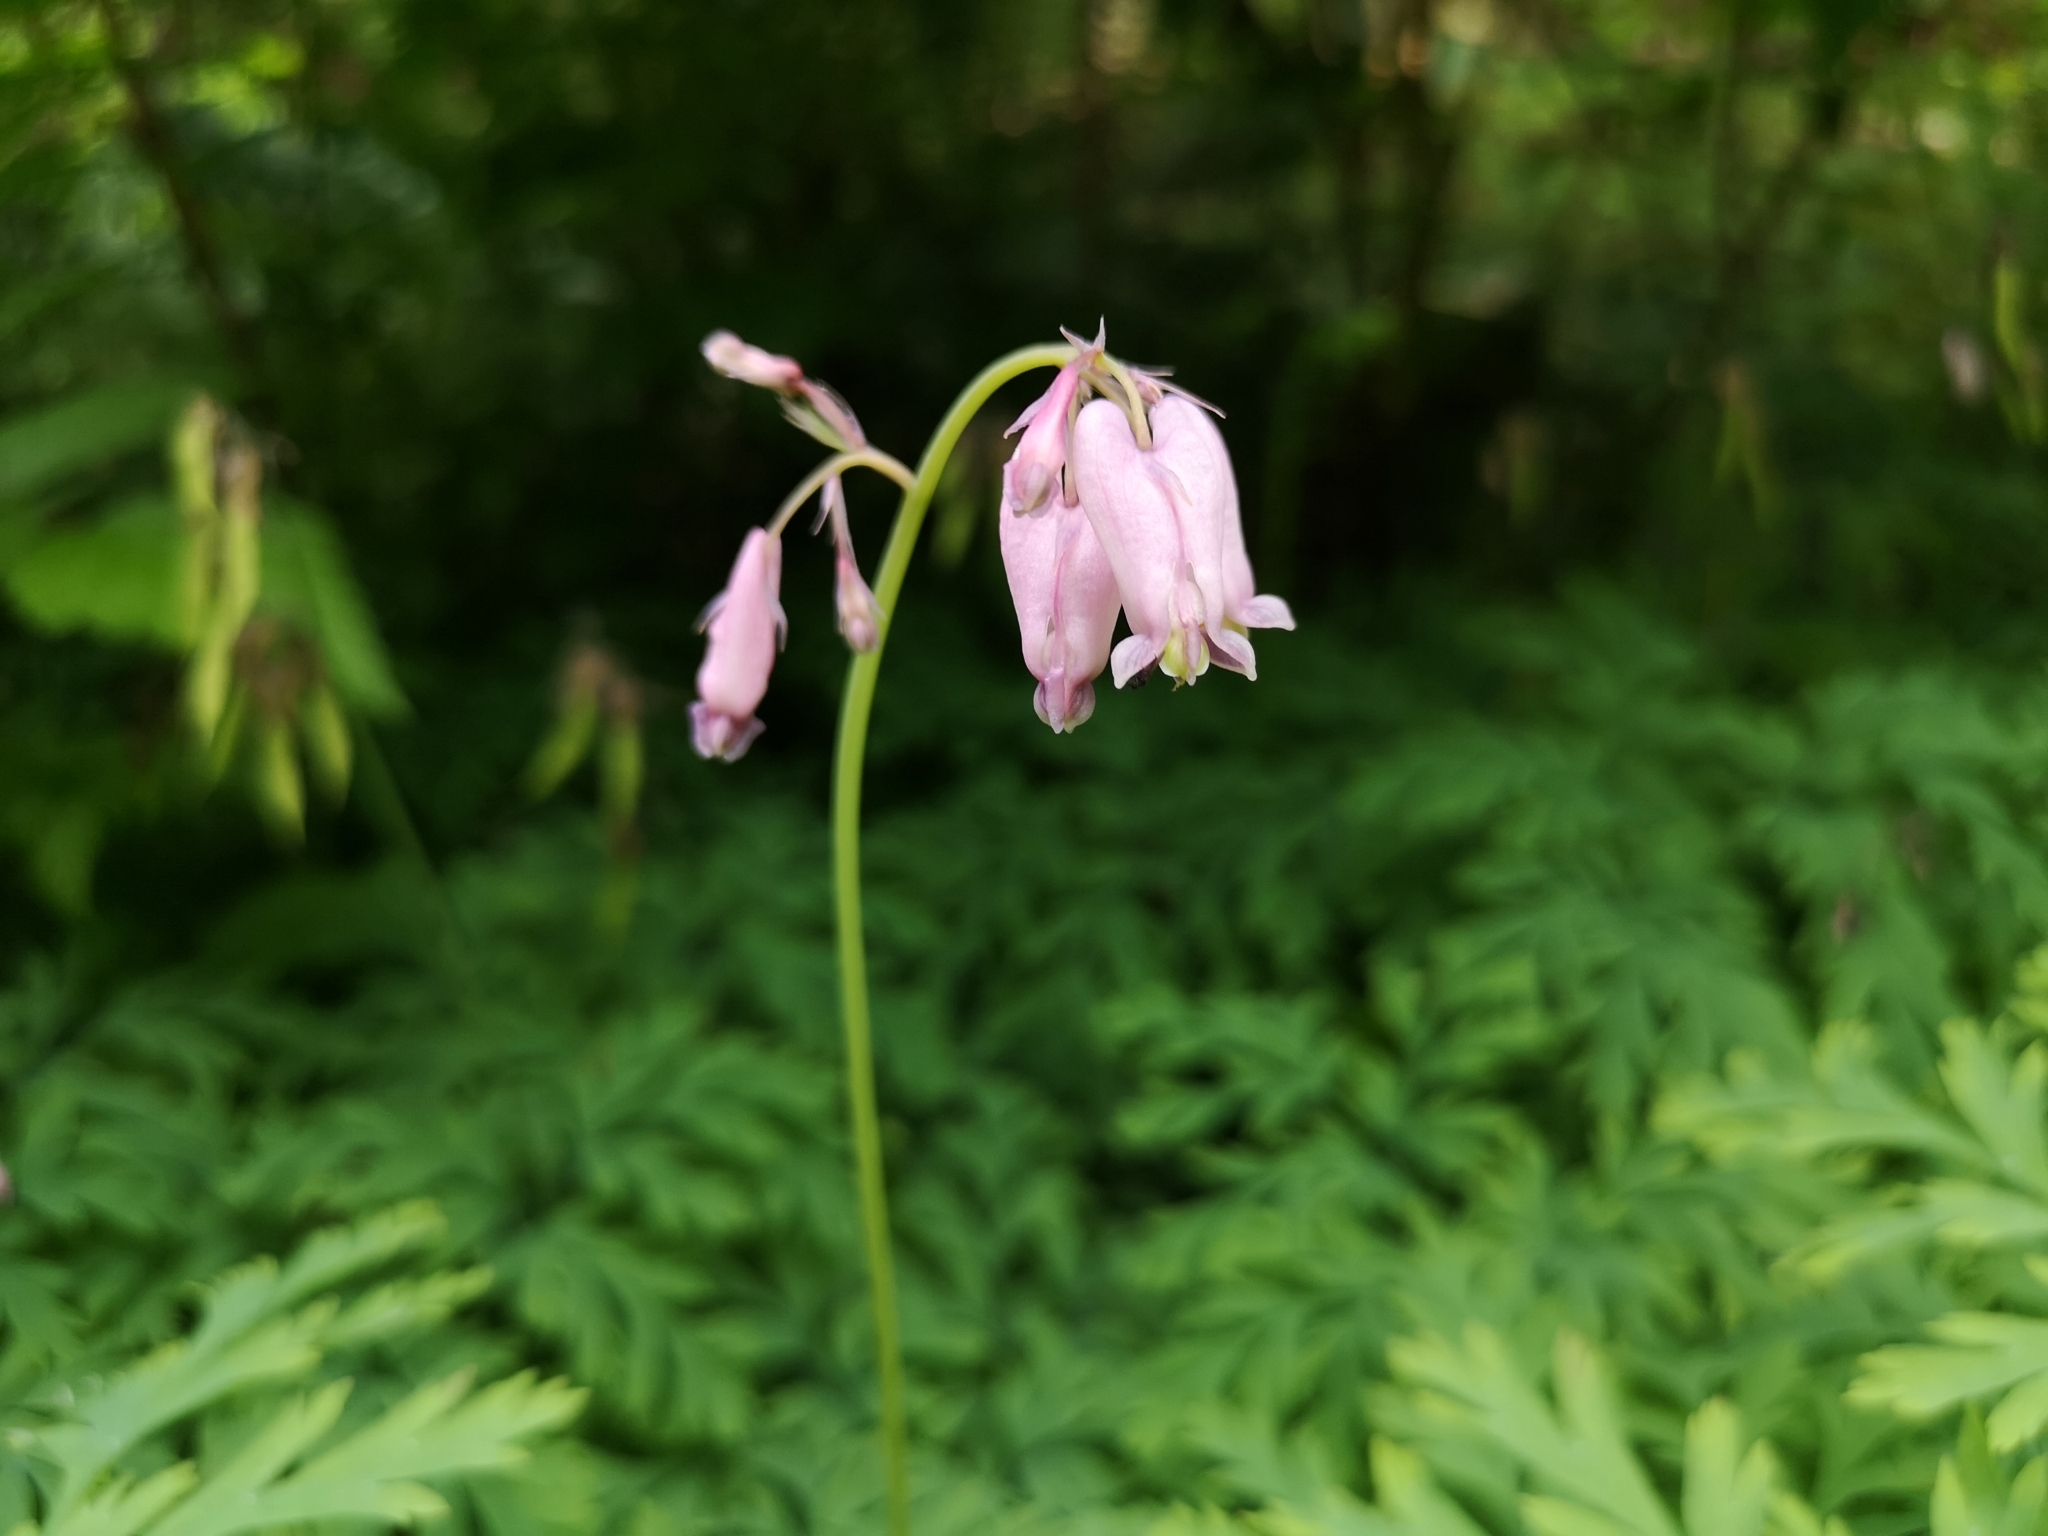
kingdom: Plantae
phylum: Tracheophyta
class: Magnoliopsida
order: Ranunculales
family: Papaveraceae
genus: Dicentra
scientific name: Dicentra formosa
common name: Bleeding-heart
